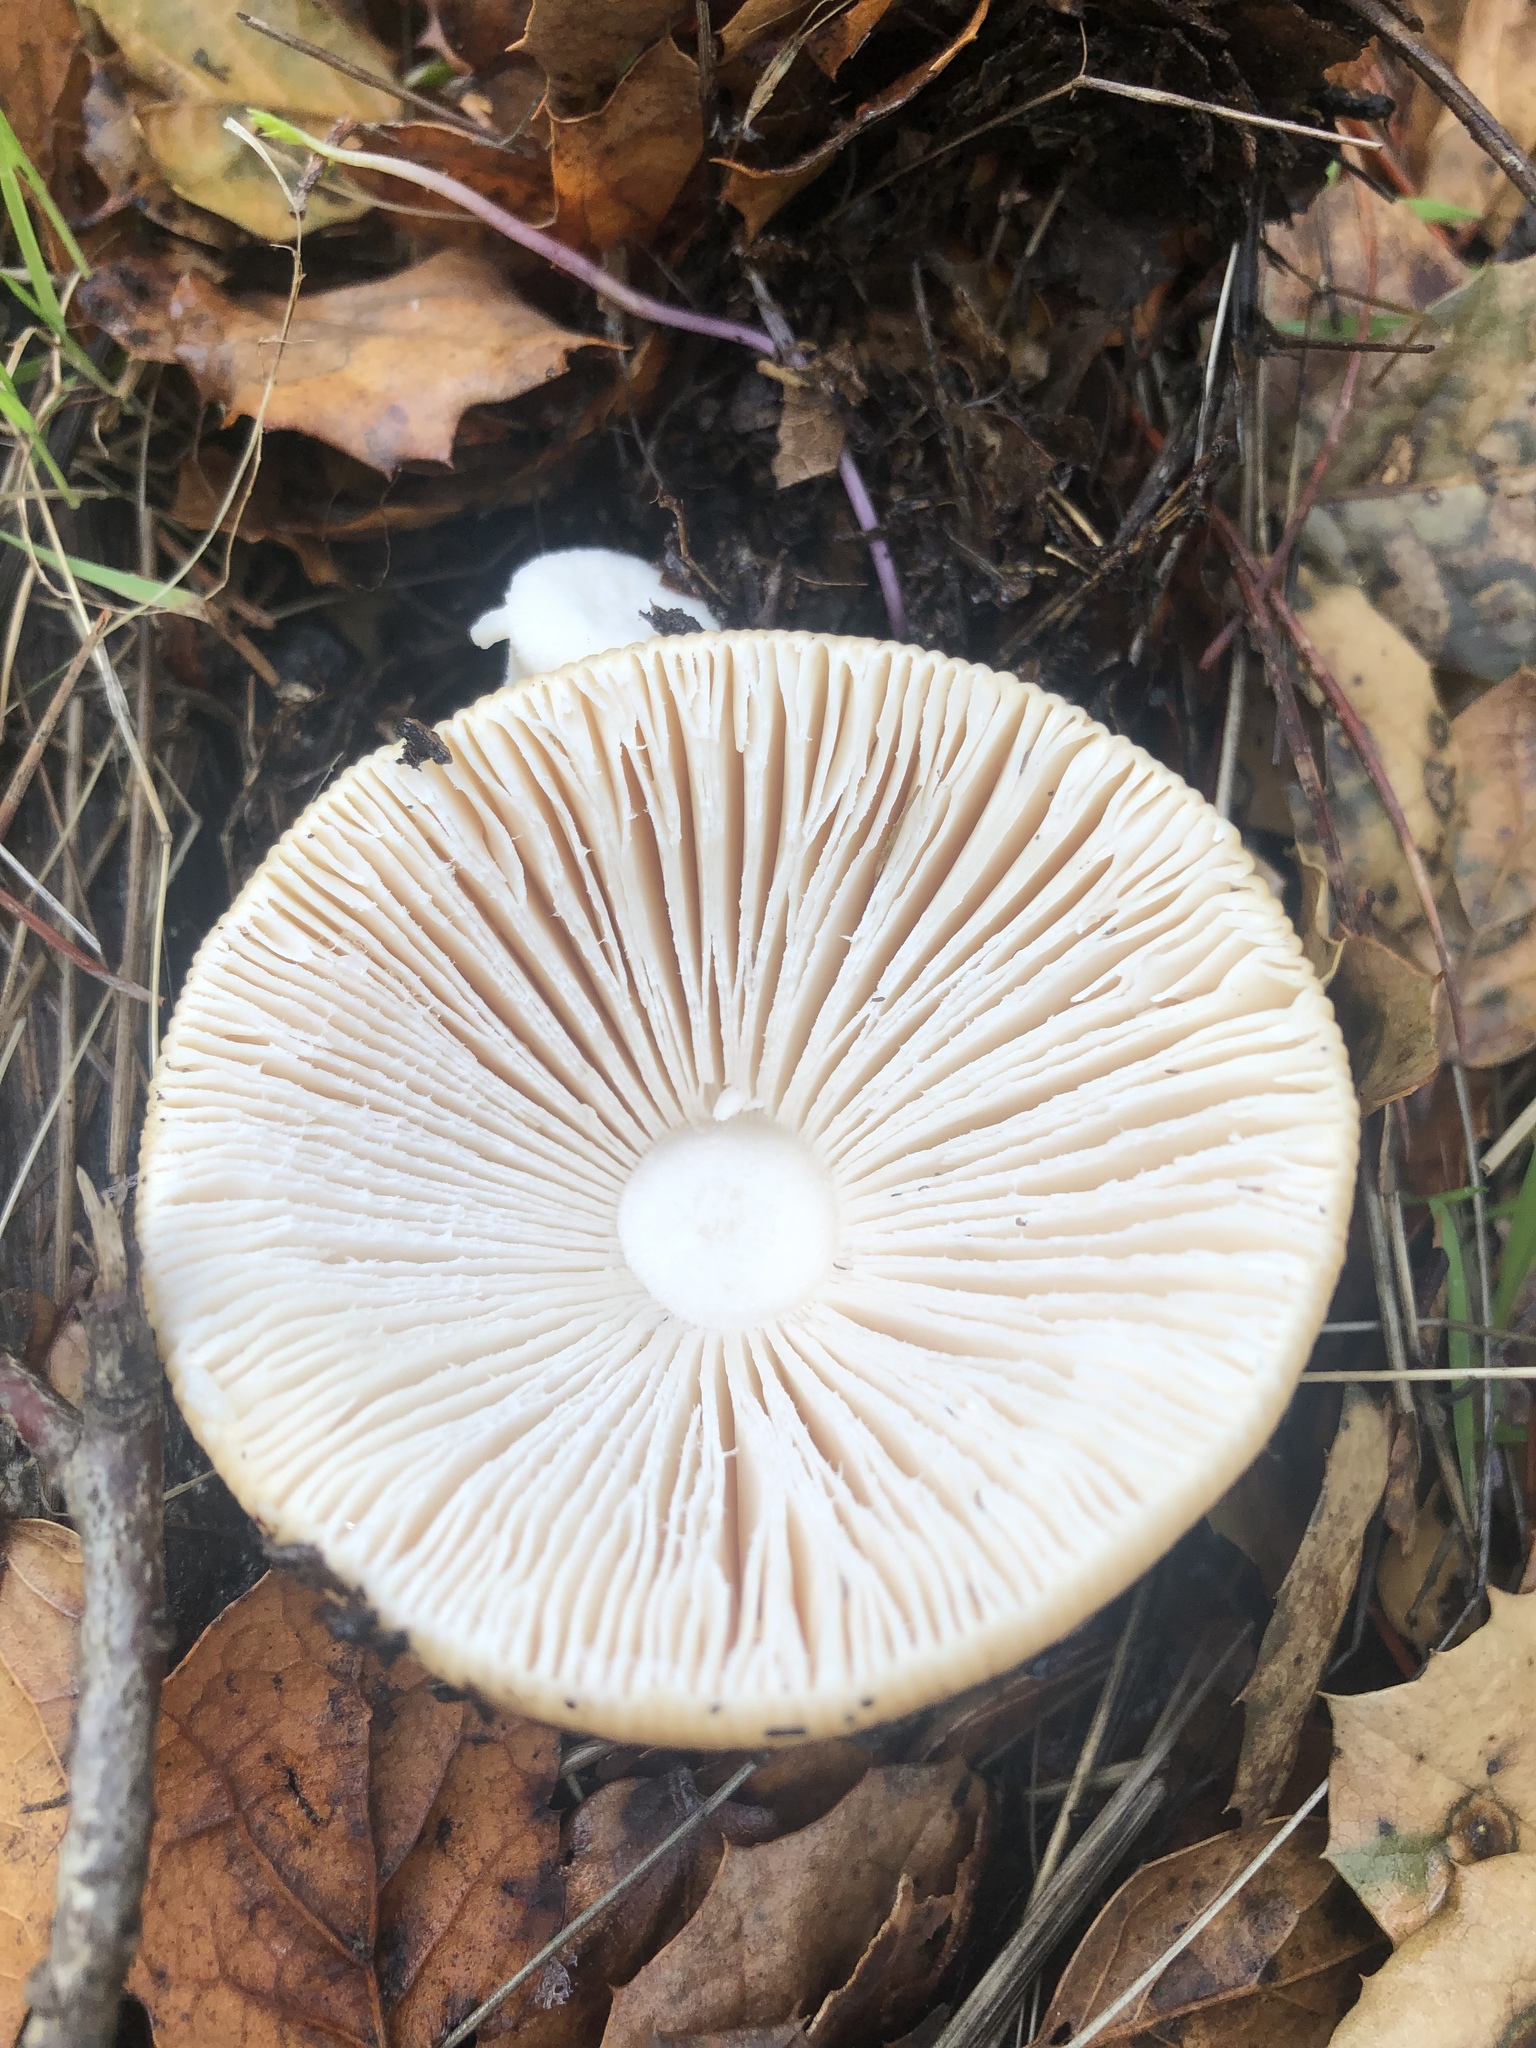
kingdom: Fungi
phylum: Basidiomycota
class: Agaricomycetes
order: Agaricales
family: Amanitaceae
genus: Amanita
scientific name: Amanita velosa
